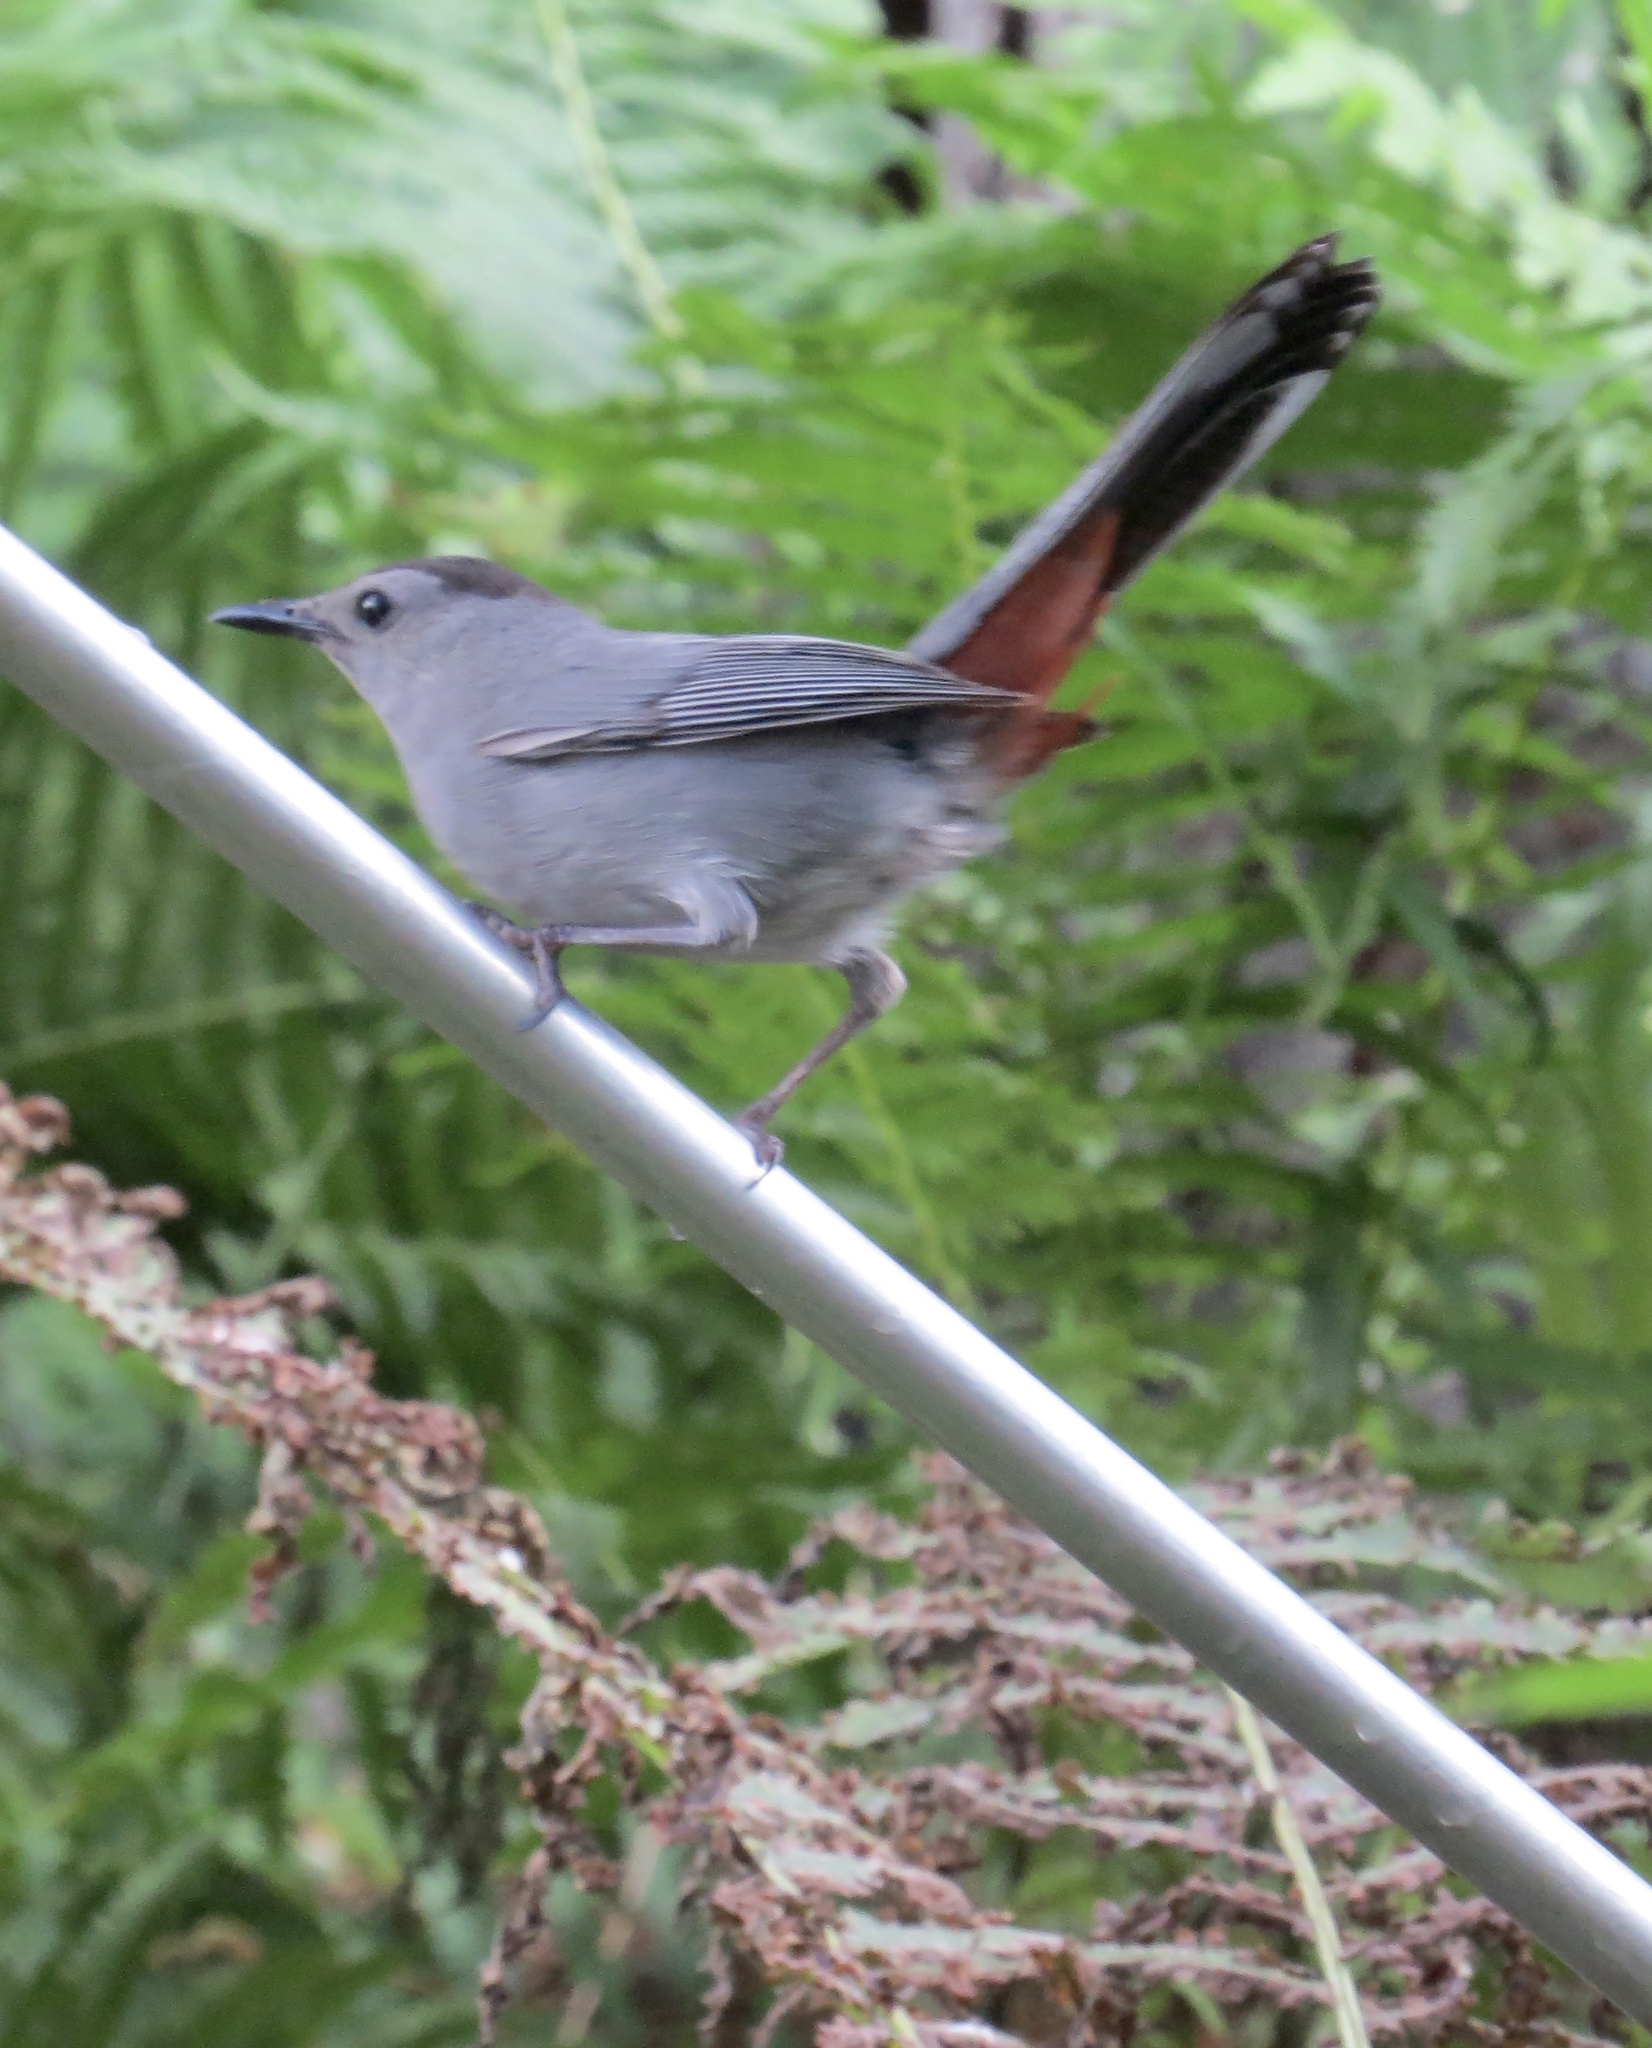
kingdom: Animalia
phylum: Chordata
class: Aves
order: Passeriformes
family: Mimidae
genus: Dumetella
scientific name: Dumetella carolinensis
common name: Gray catbird
